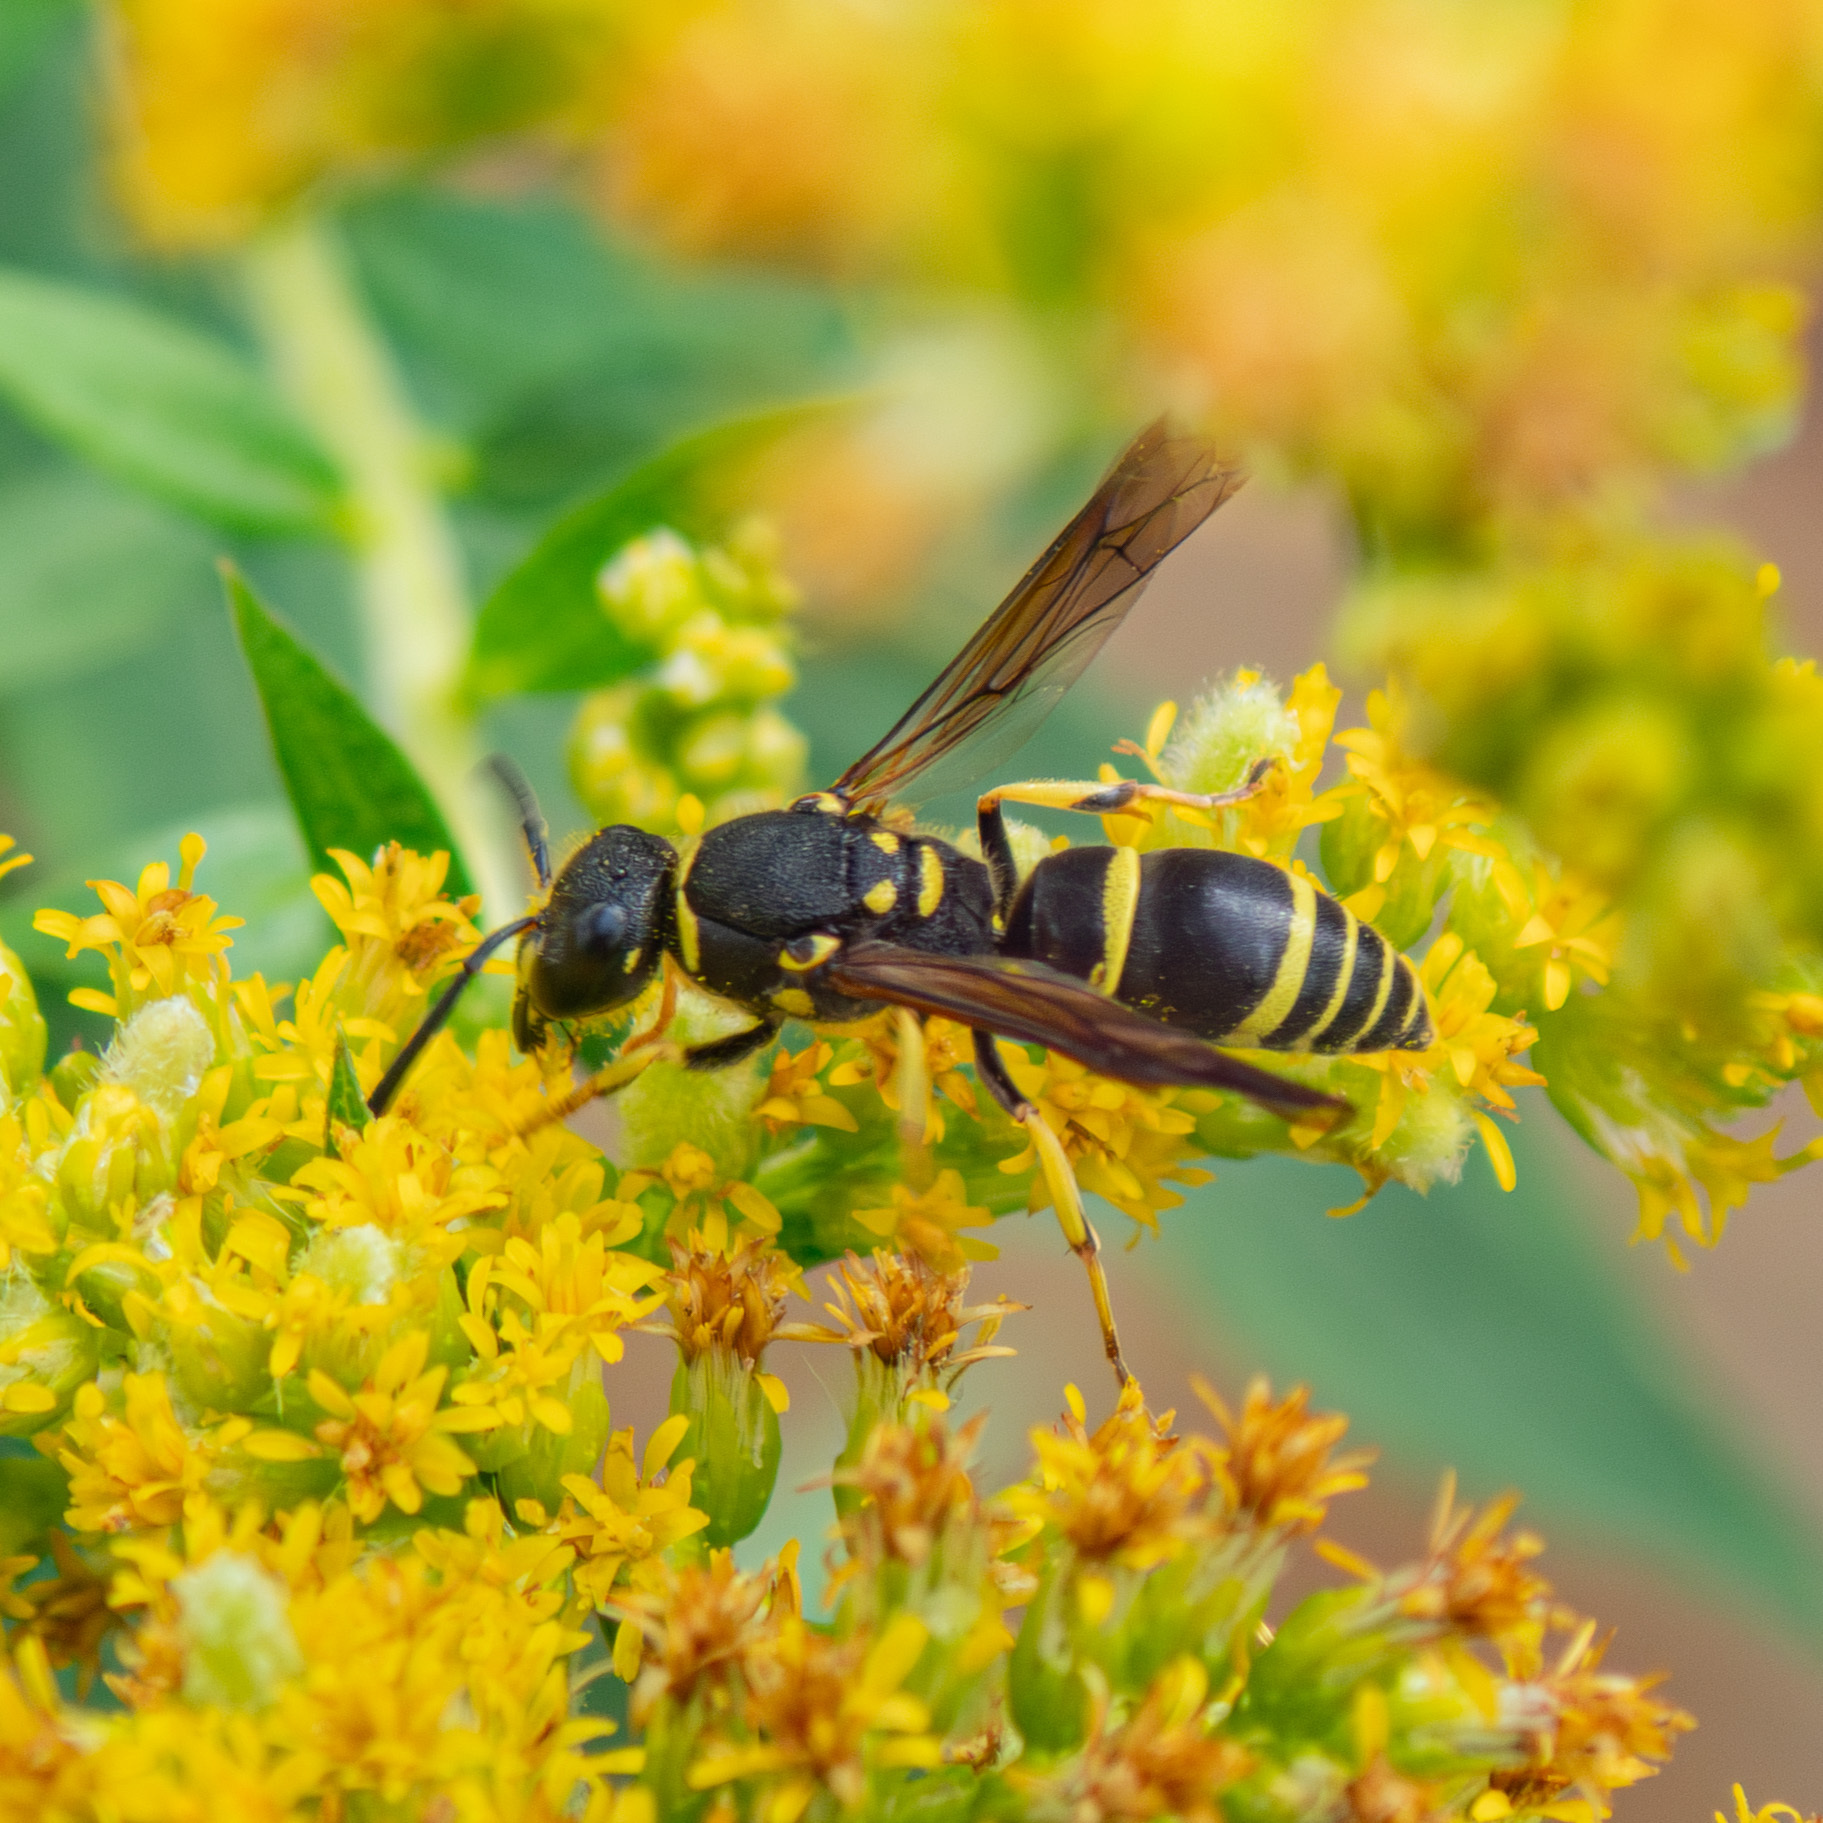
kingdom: Animalia
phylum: Arthropoda
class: Insecta
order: Hymenoptera
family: Vespidae
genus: Ancistrocerus
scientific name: Ancistrocerus adiabatus
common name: Bramble mason wasp
